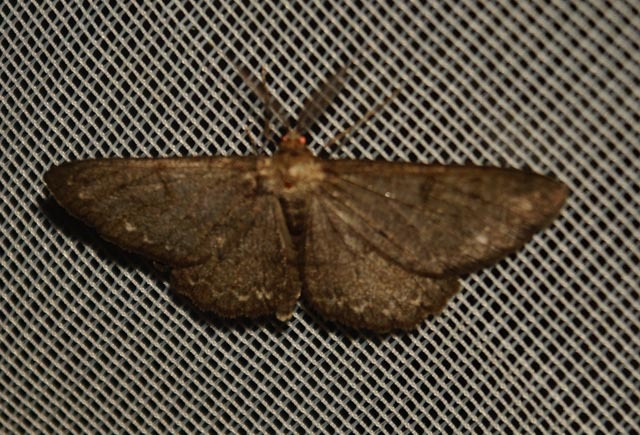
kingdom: Animalia
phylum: Arthropoda
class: Insecta
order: Lepidoptera
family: Geometridae
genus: Hypomecis
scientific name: Hypomecis punctinalis
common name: Pale oak beauty
